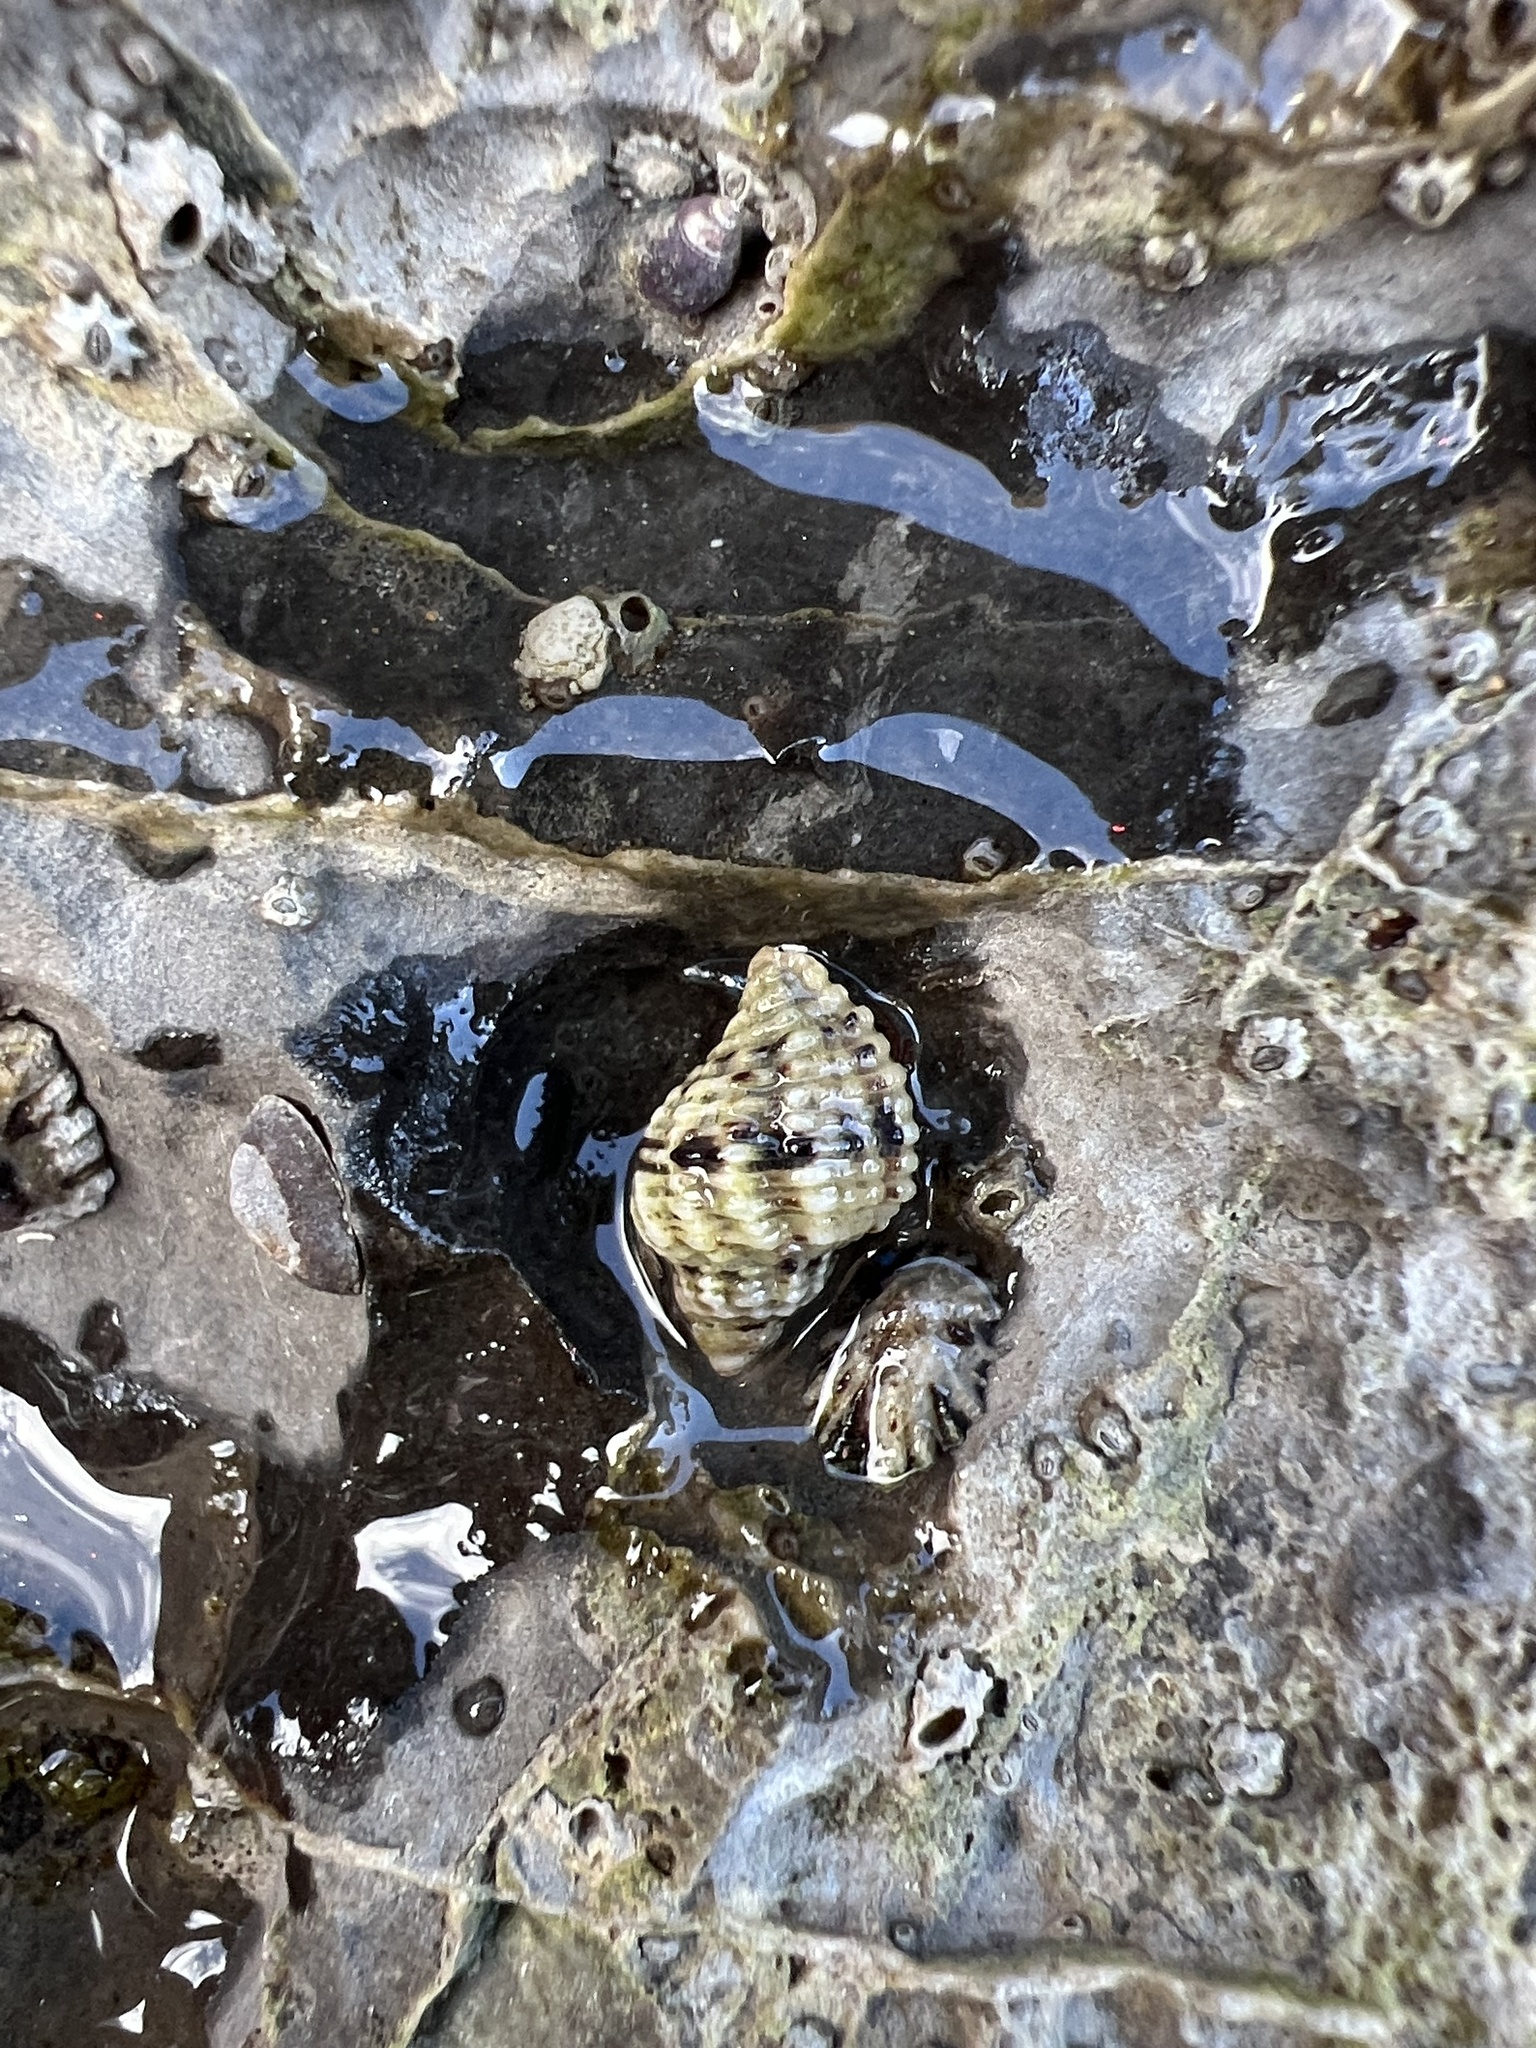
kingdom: Animalia
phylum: Mollusca
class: Gastropoda
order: Neogastropoda
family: Muricidae
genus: Paciocinebrina
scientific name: Paciocinebrina circumtexta
